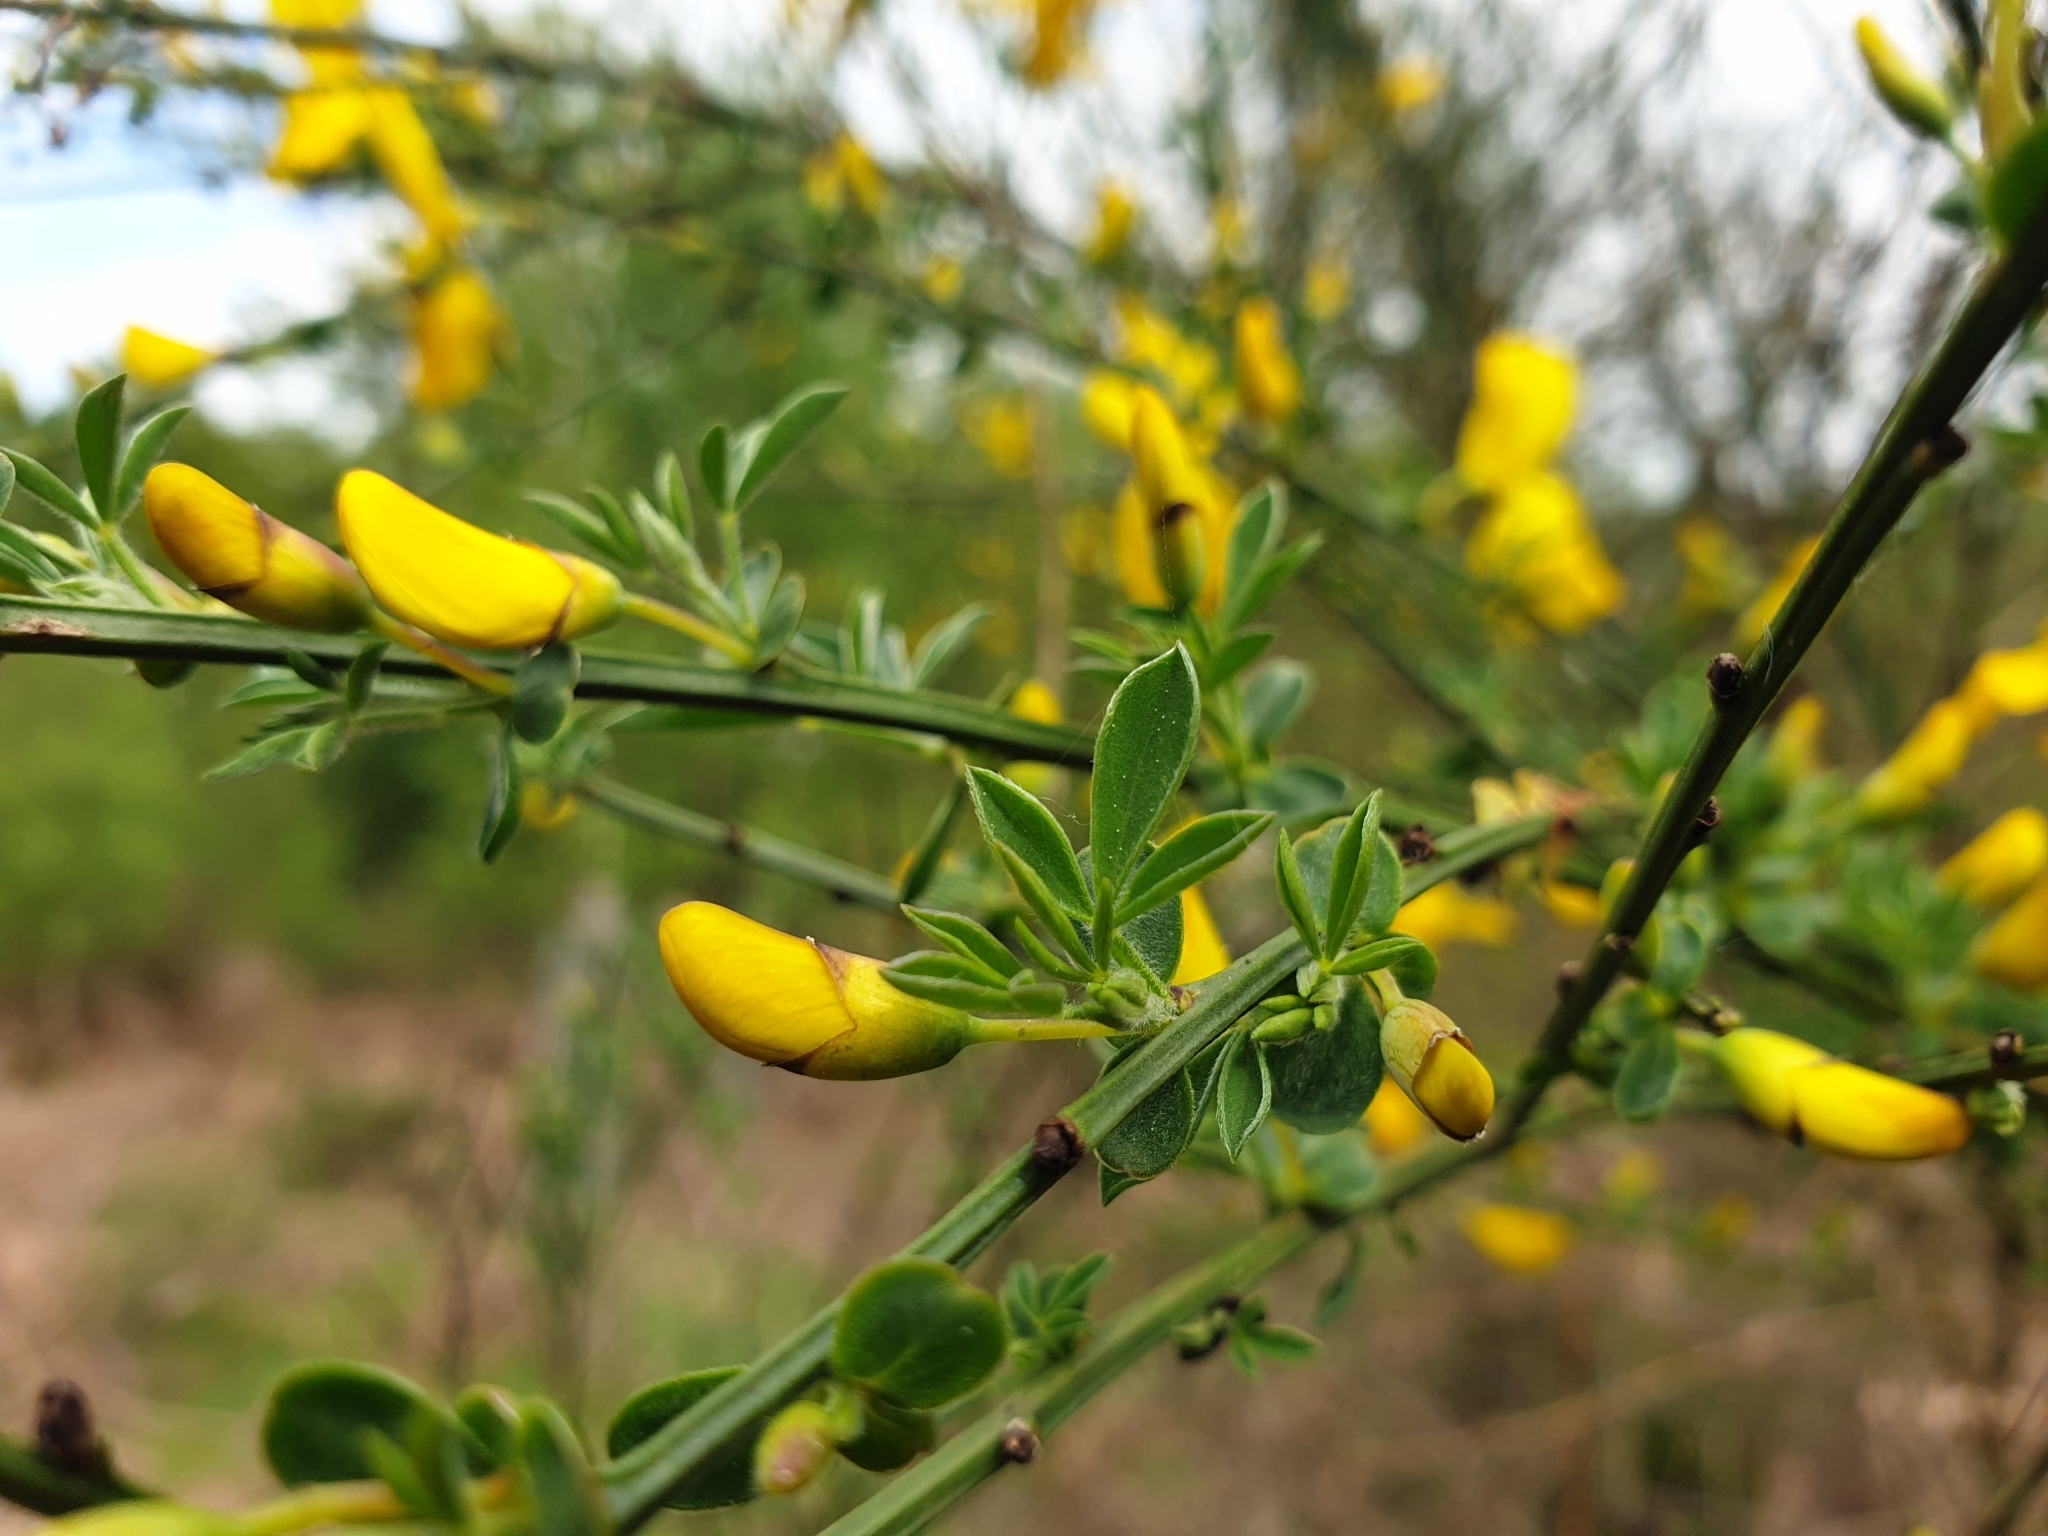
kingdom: Plantae
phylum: Tracheophyta
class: Magnoliopsida
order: Fabales
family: Fabaceae
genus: Cytisus
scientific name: Cytisus scoparius
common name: Scotch broom
